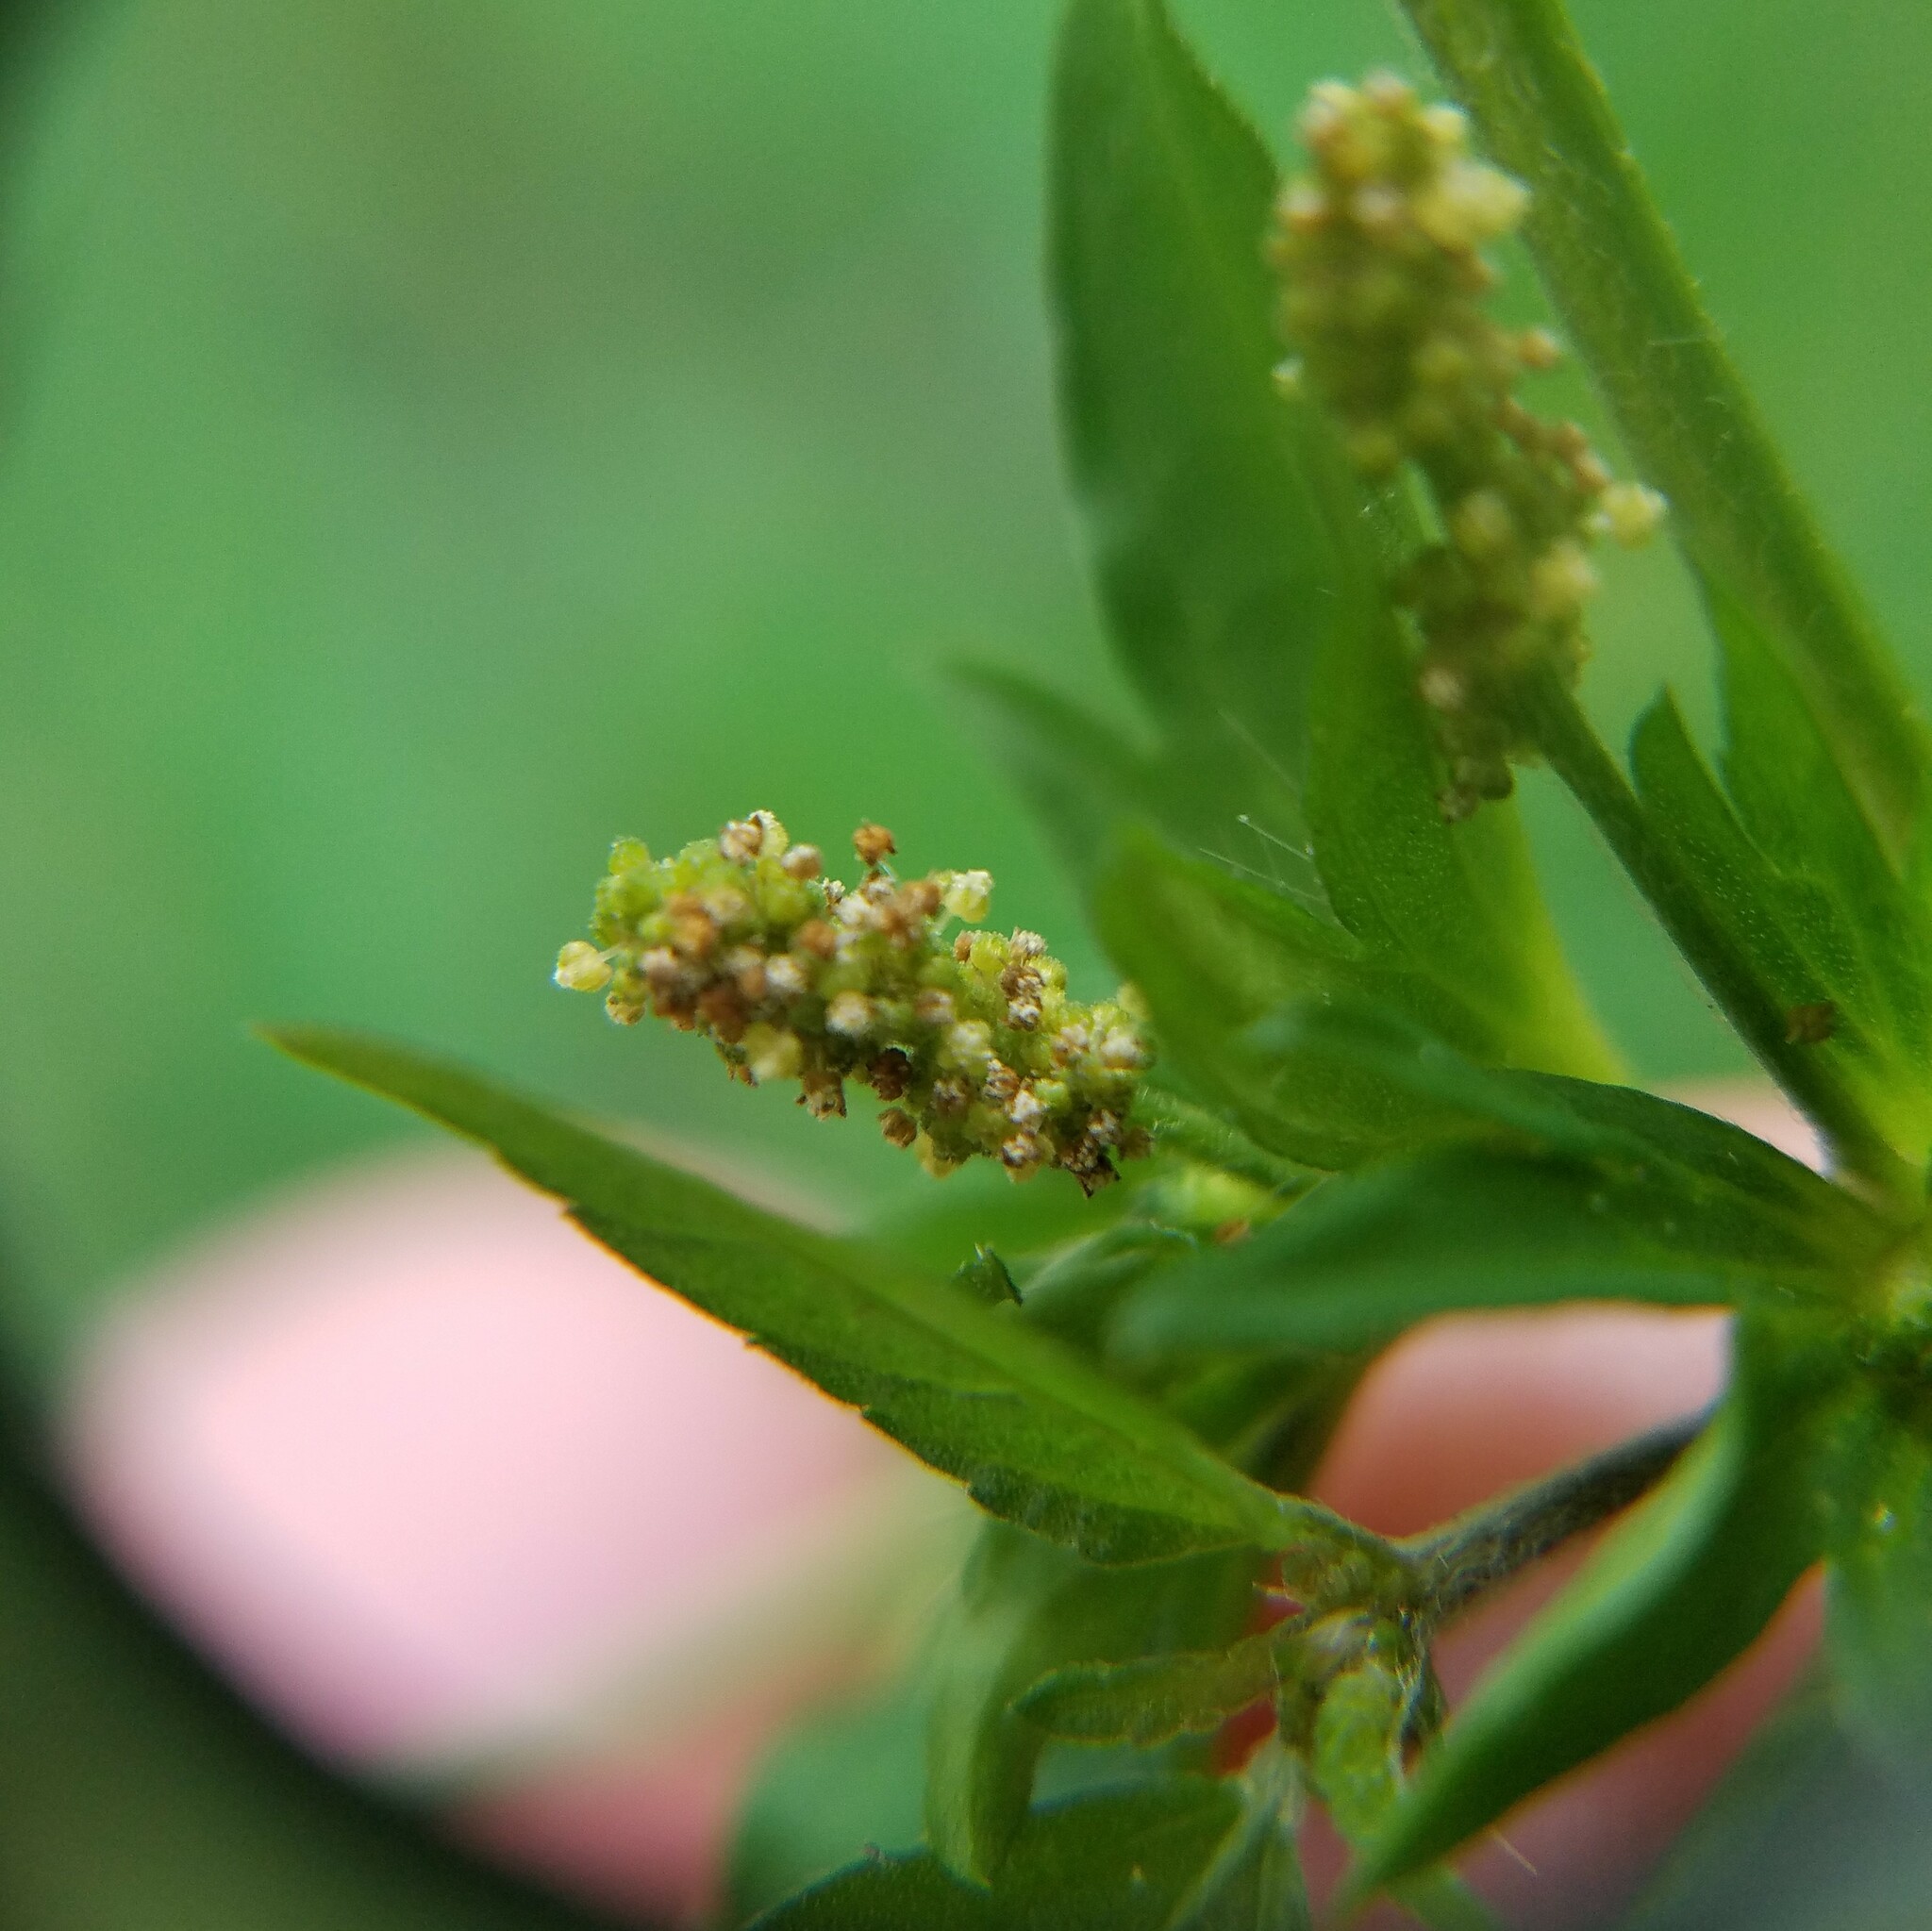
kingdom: Plantae
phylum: Tracheophyta
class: Magnoliopsida
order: Malpighiales
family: Euphorbiaceae
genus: Acalypha
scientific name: Acalypha rhomboidea
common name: Rhombic copperleaf
